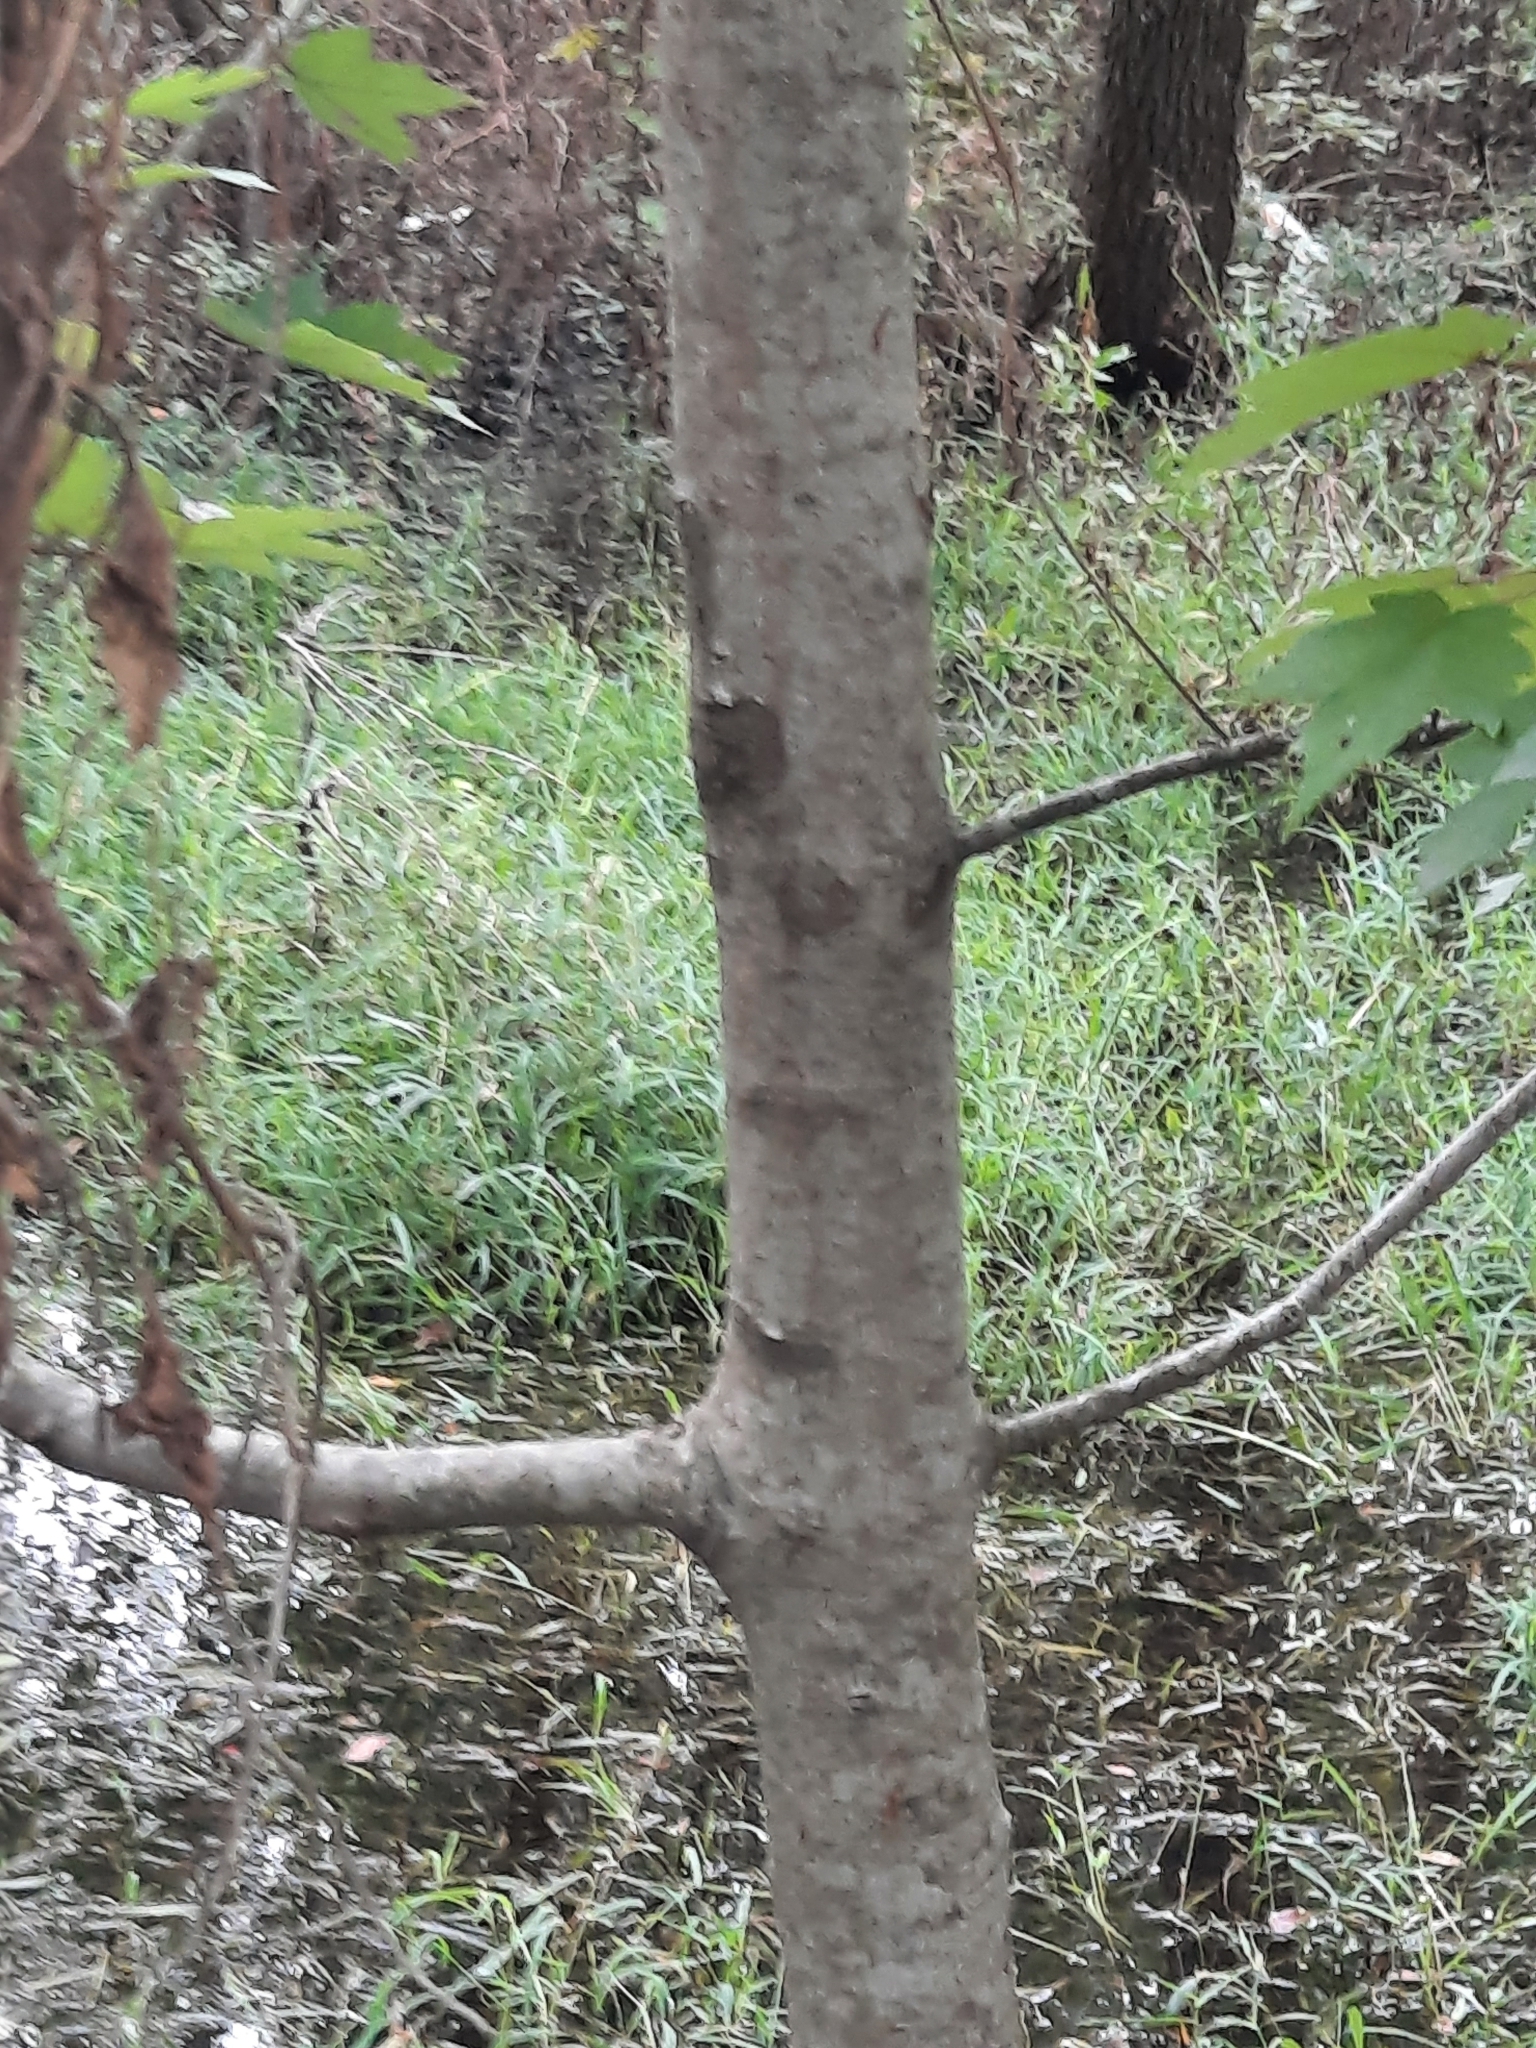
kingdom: Plantae
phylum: Tracheophyta
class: Magnoliopsida
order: Sapindales
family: Sapindaceae
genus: Acer
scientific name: Acer rubrum
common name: Red maple
